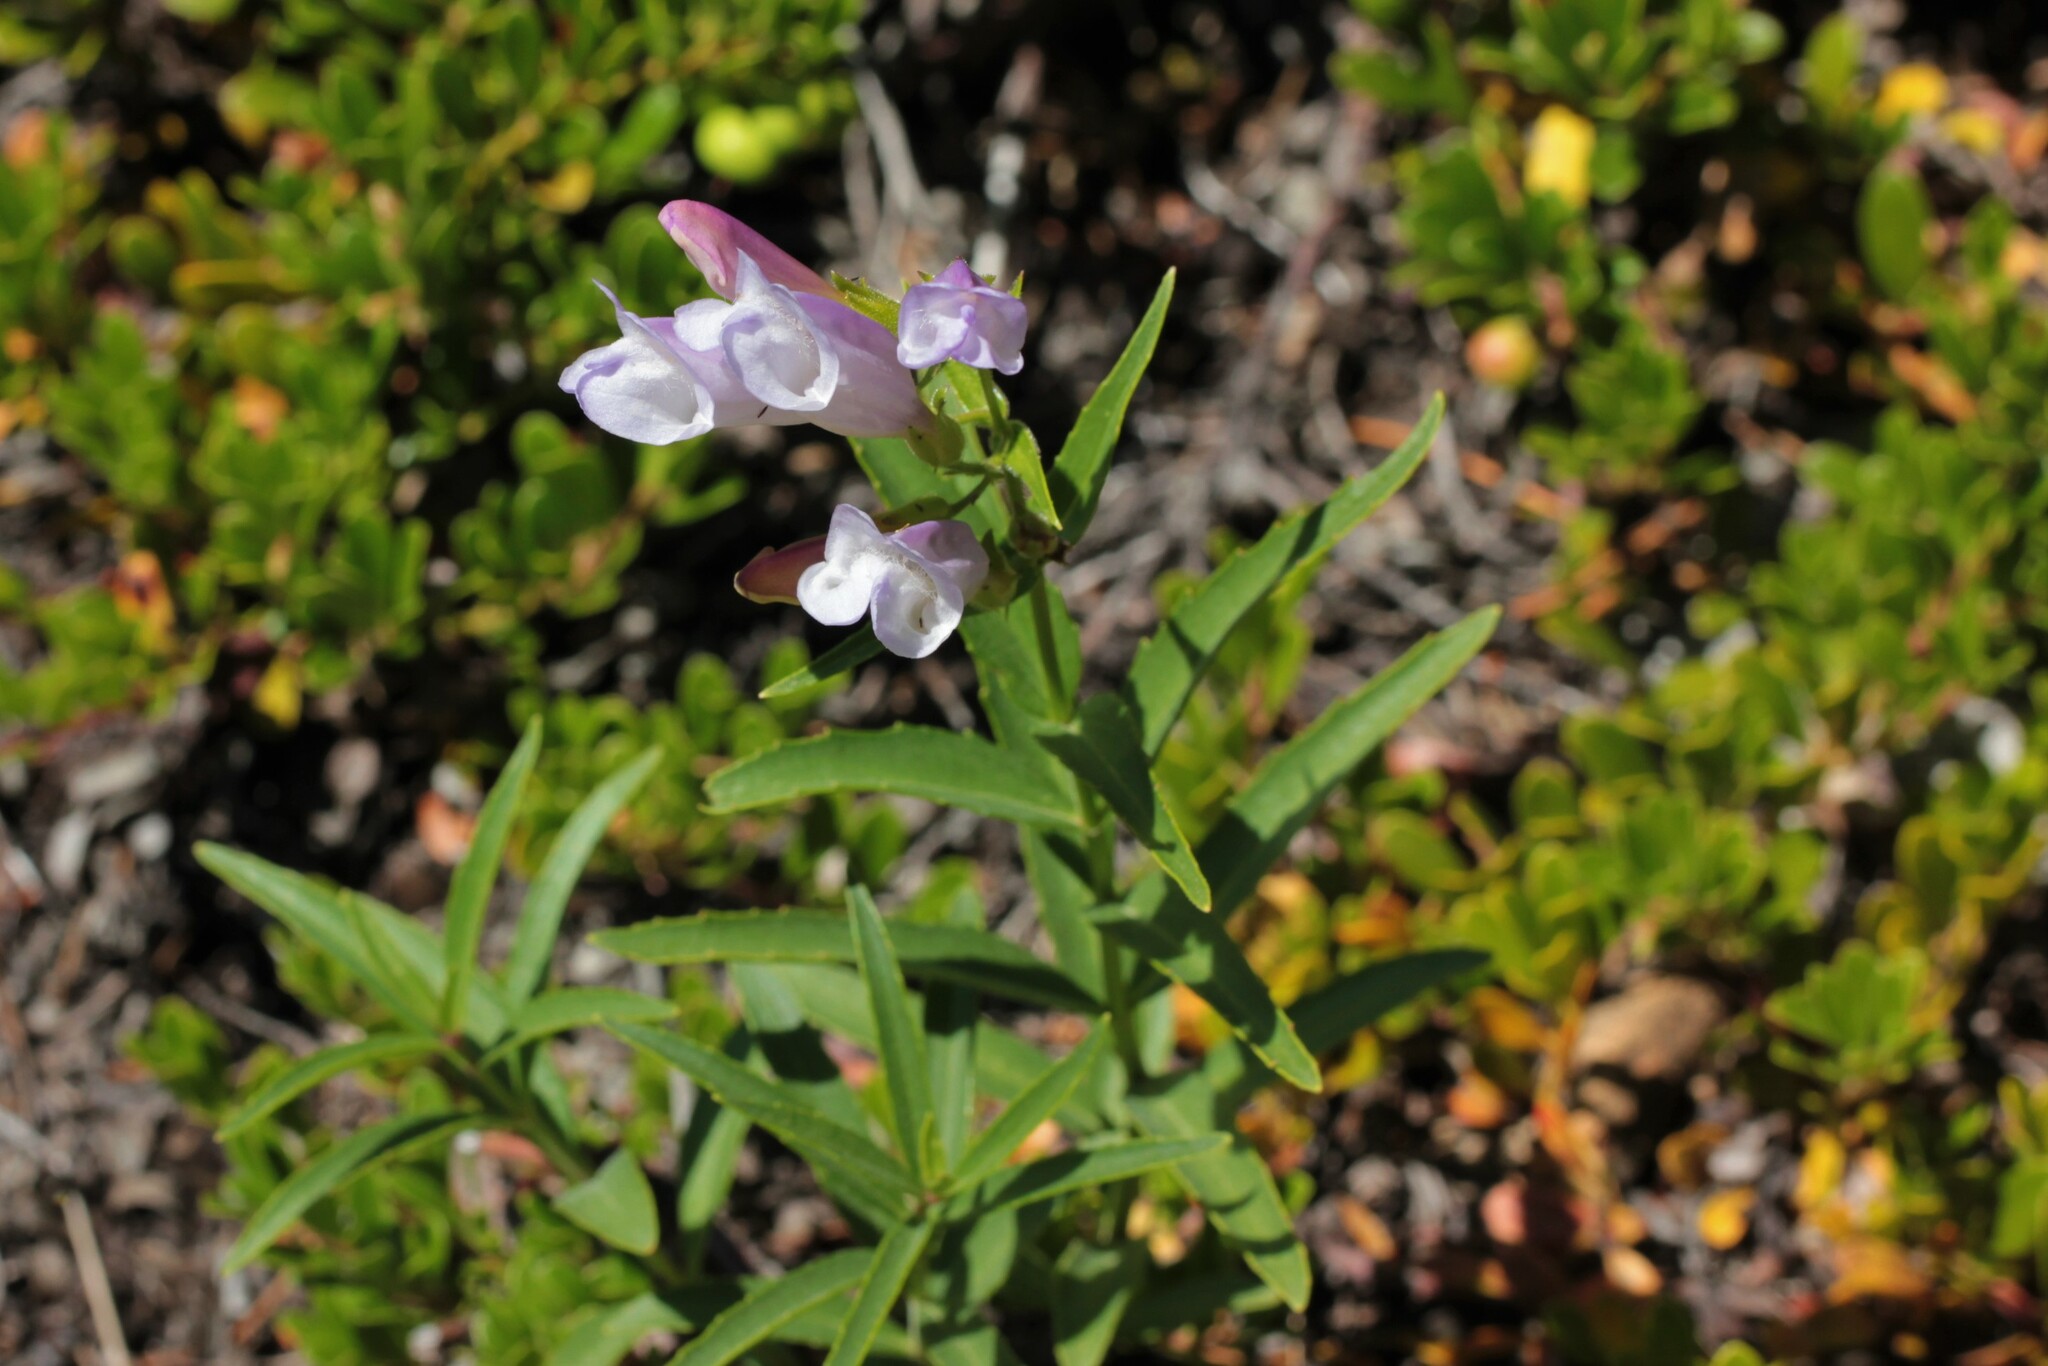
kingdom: Plantae
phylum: Tracheophyta
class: Magnoliopsida
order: Lamiales
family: Plantaginaceae
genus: Penstemon
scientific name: Penstemon lyalli
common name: Lyall's beardtongue
